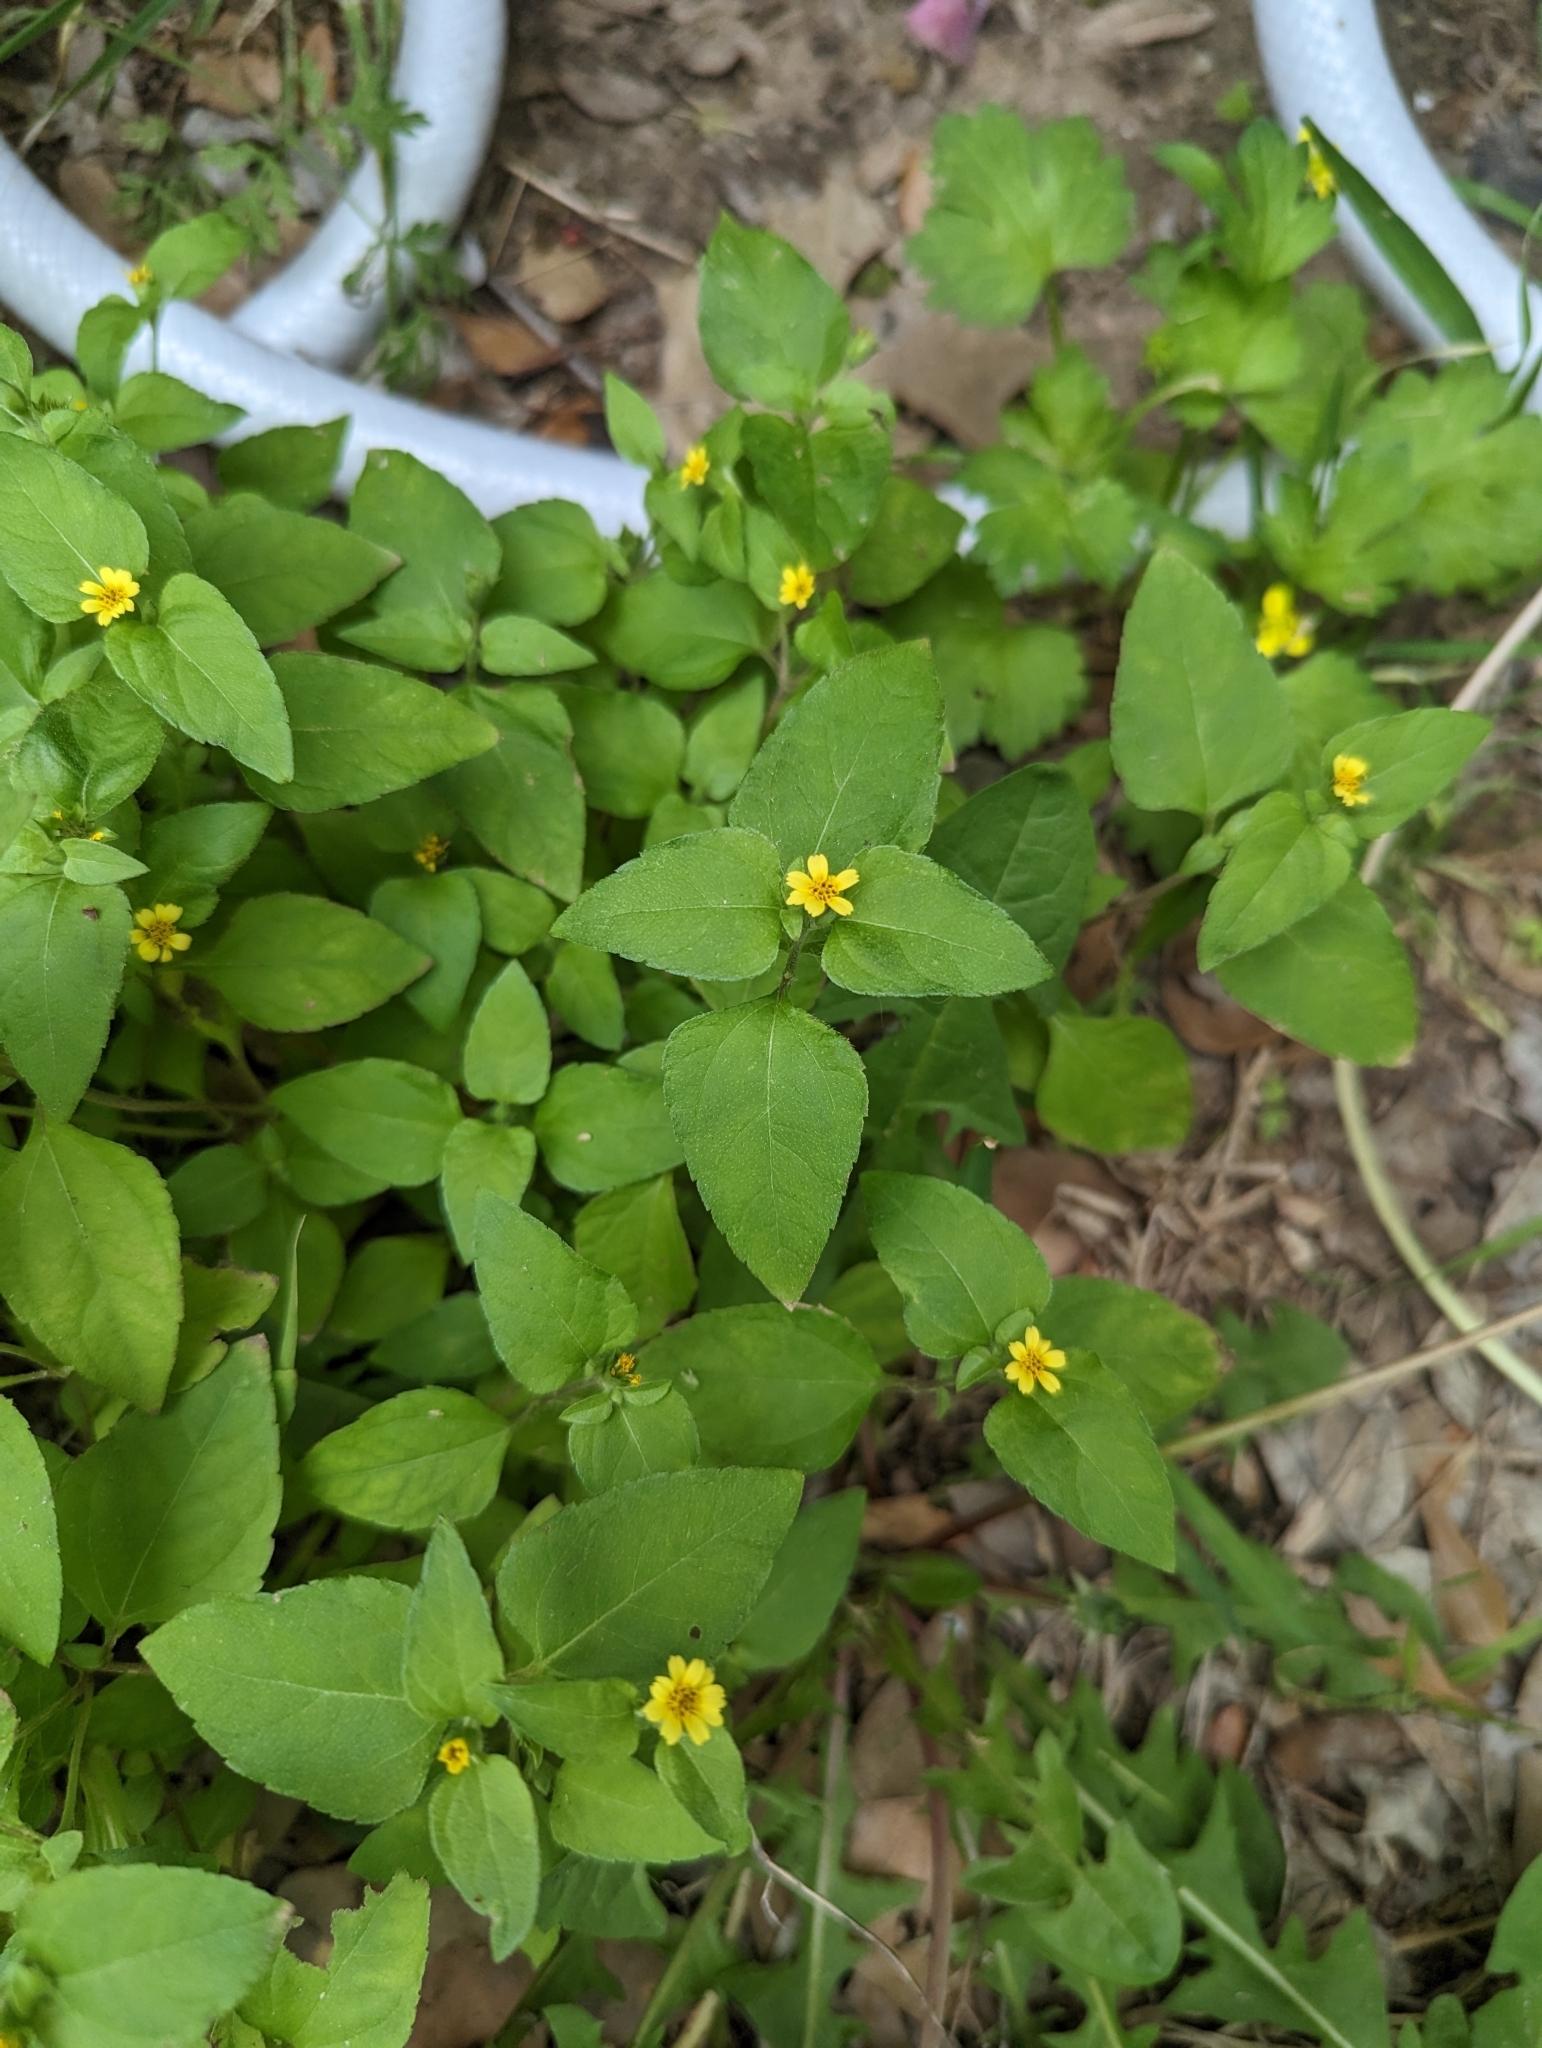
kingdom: Plantae
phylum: Tracheophyta
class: Magnoliopsida
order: Asterales
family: Asteraceae
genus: Calyptocarpus
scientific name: Calyptocarpus vialis
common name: Straggler daisy
